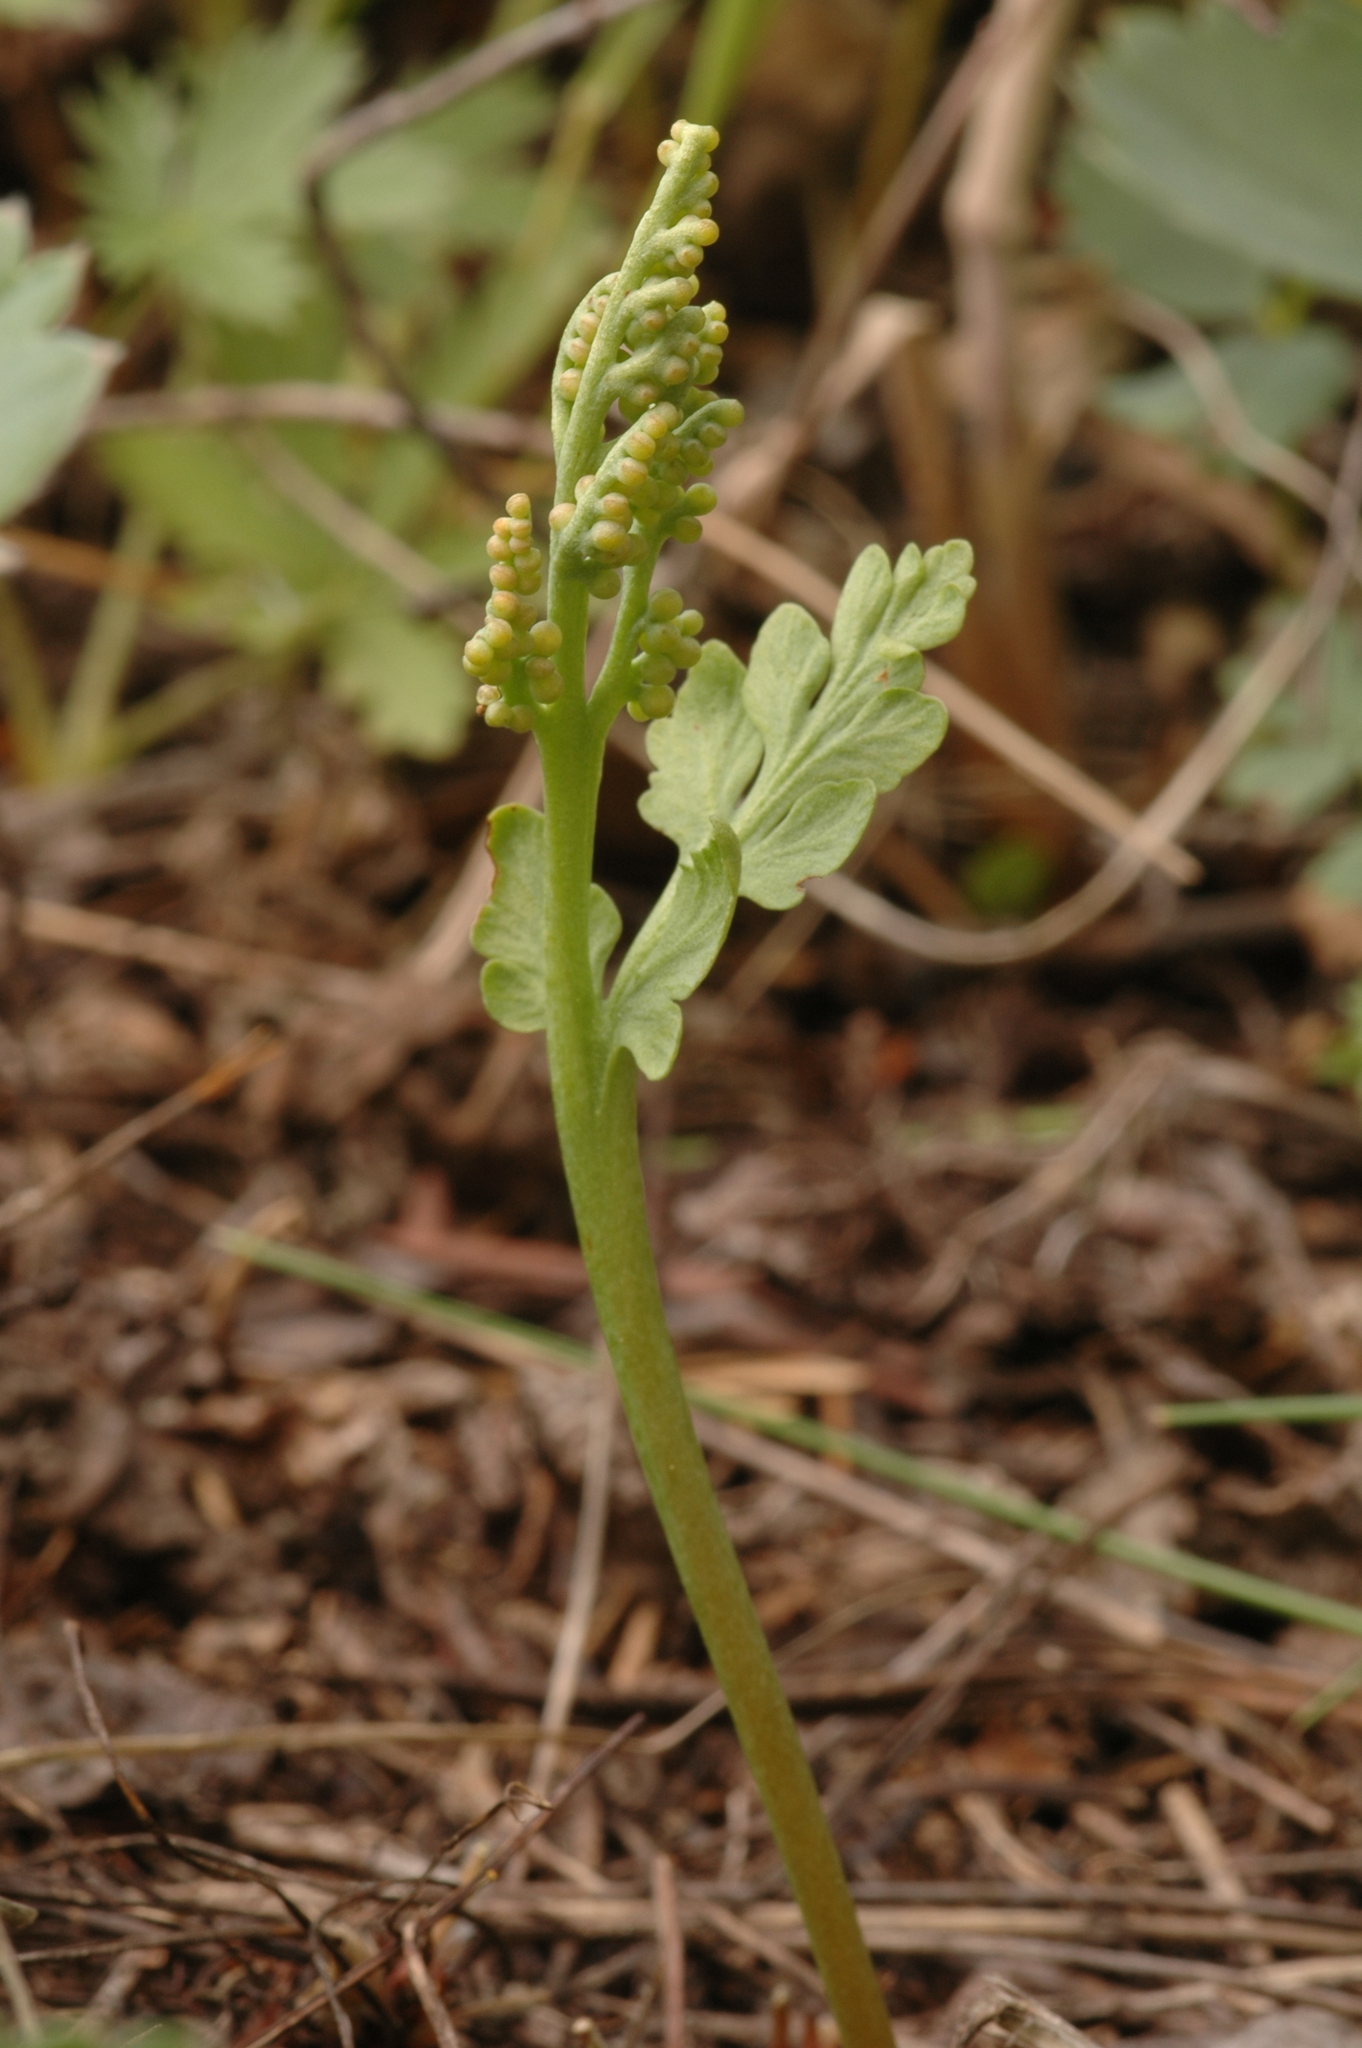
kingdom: Plantae
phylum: Tracheophyta
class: Polypodiopsida
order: Ophioglossales
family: Ophioglossaceae
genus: Botrychium
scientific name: Botrychium hesperium
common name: Western moonwort
